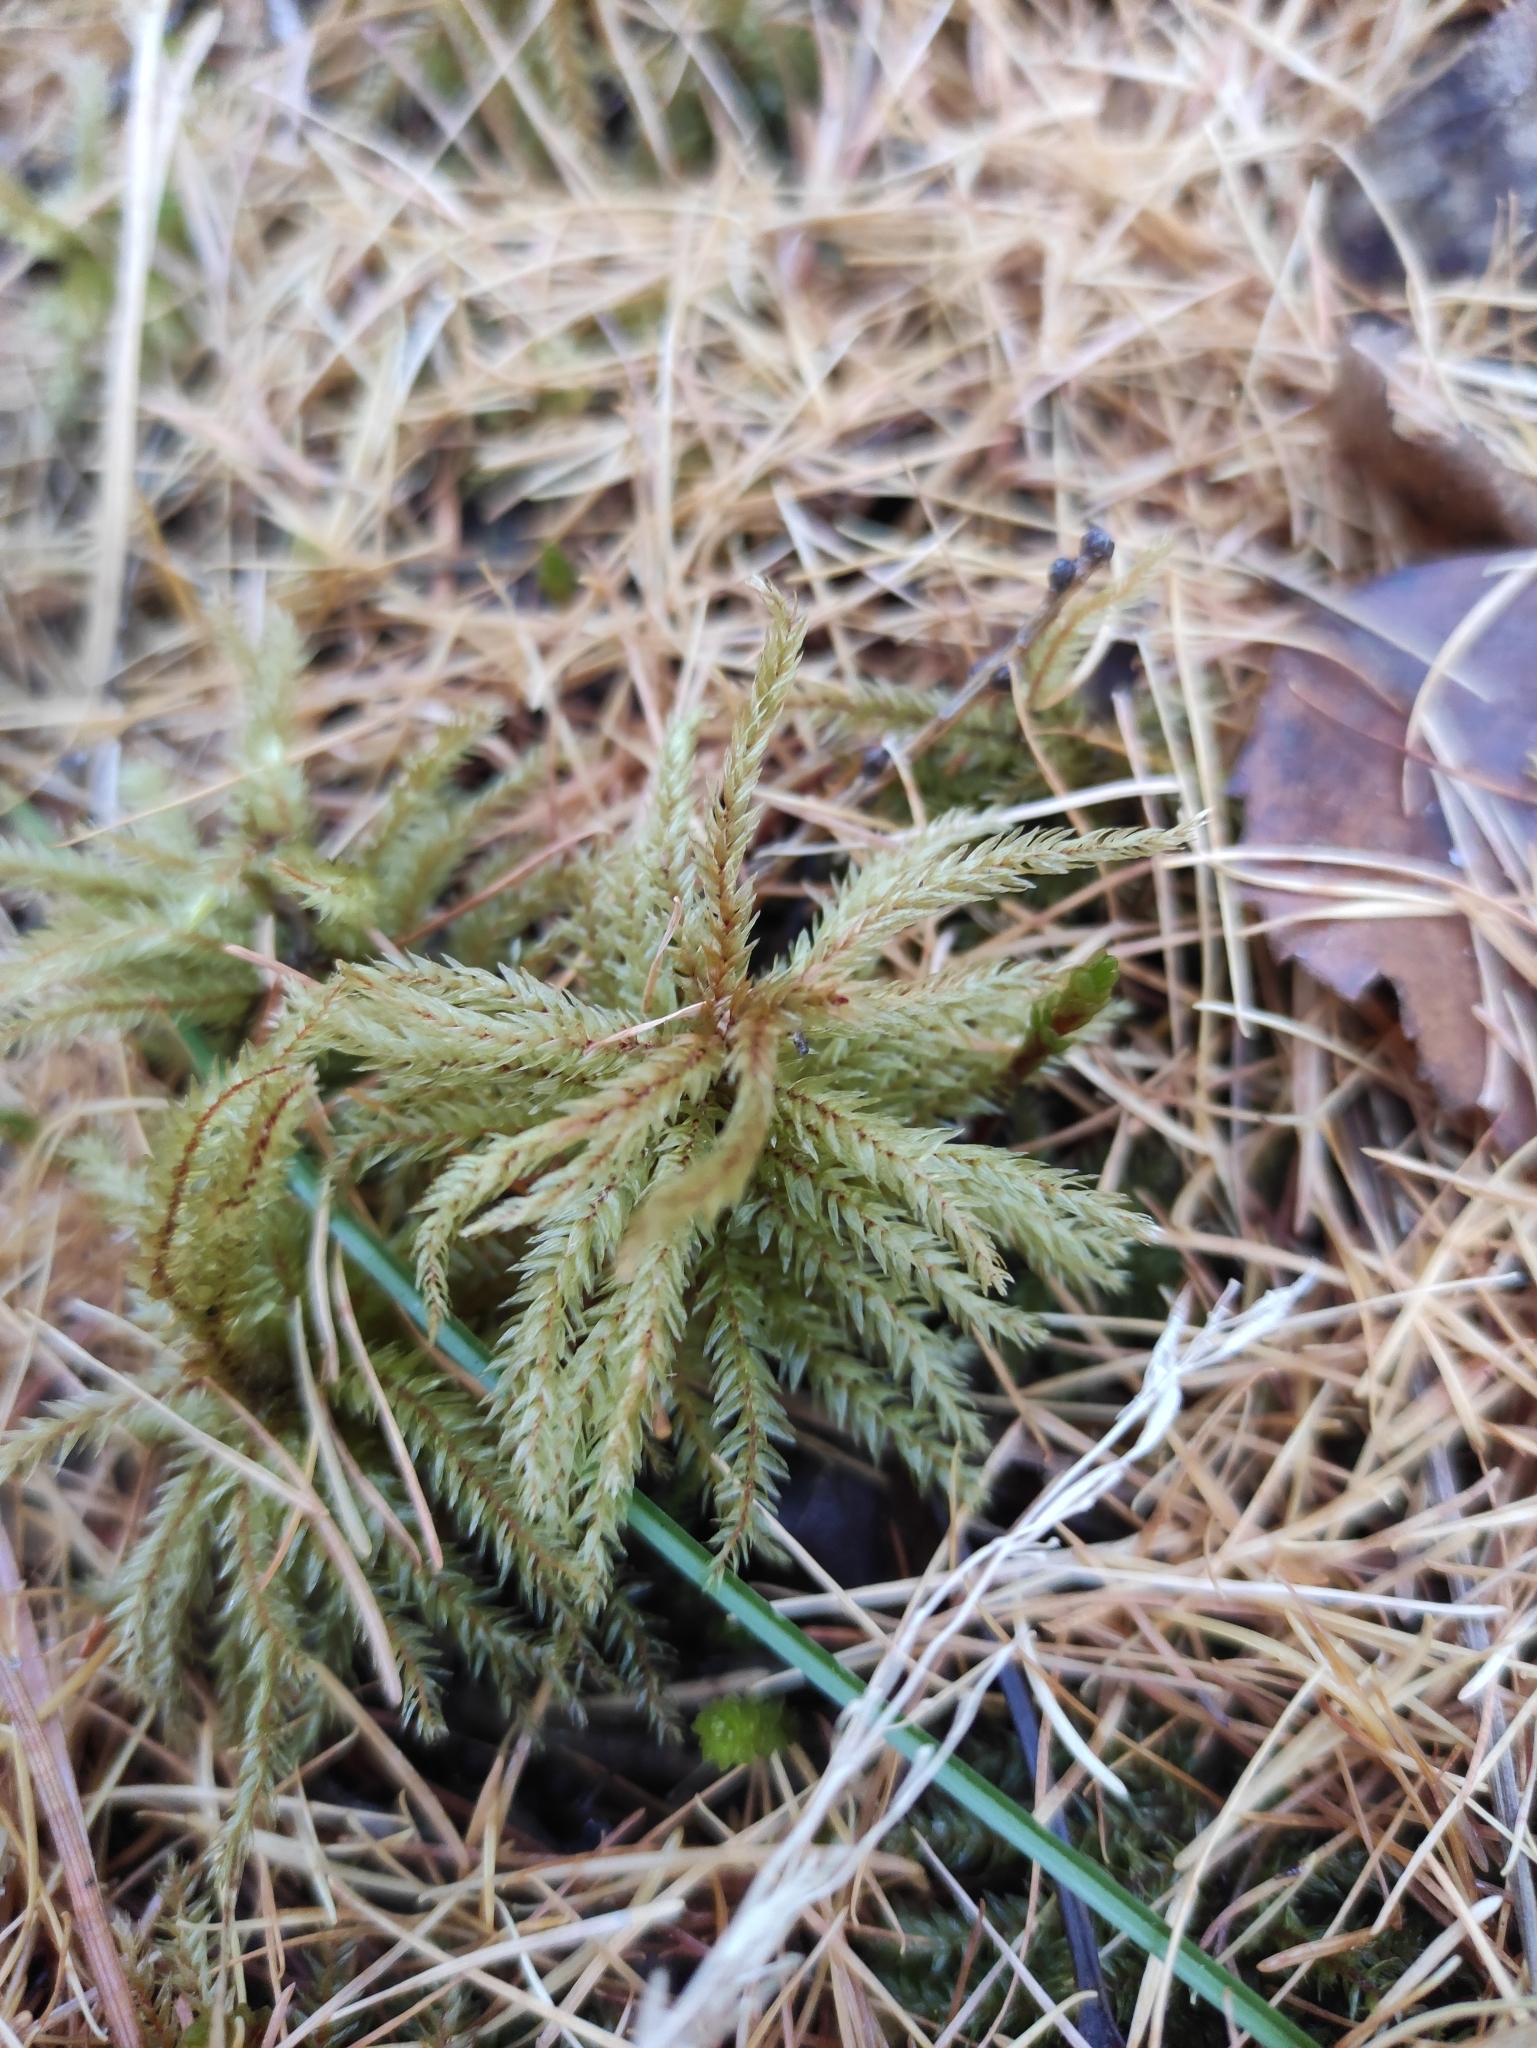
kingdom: Plantae
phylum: Bryophyta
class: Bryopsida
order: Hypnales
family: Climaciaceae
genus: Climacium
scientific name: Climacium dendroides
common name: Northern tree moss
